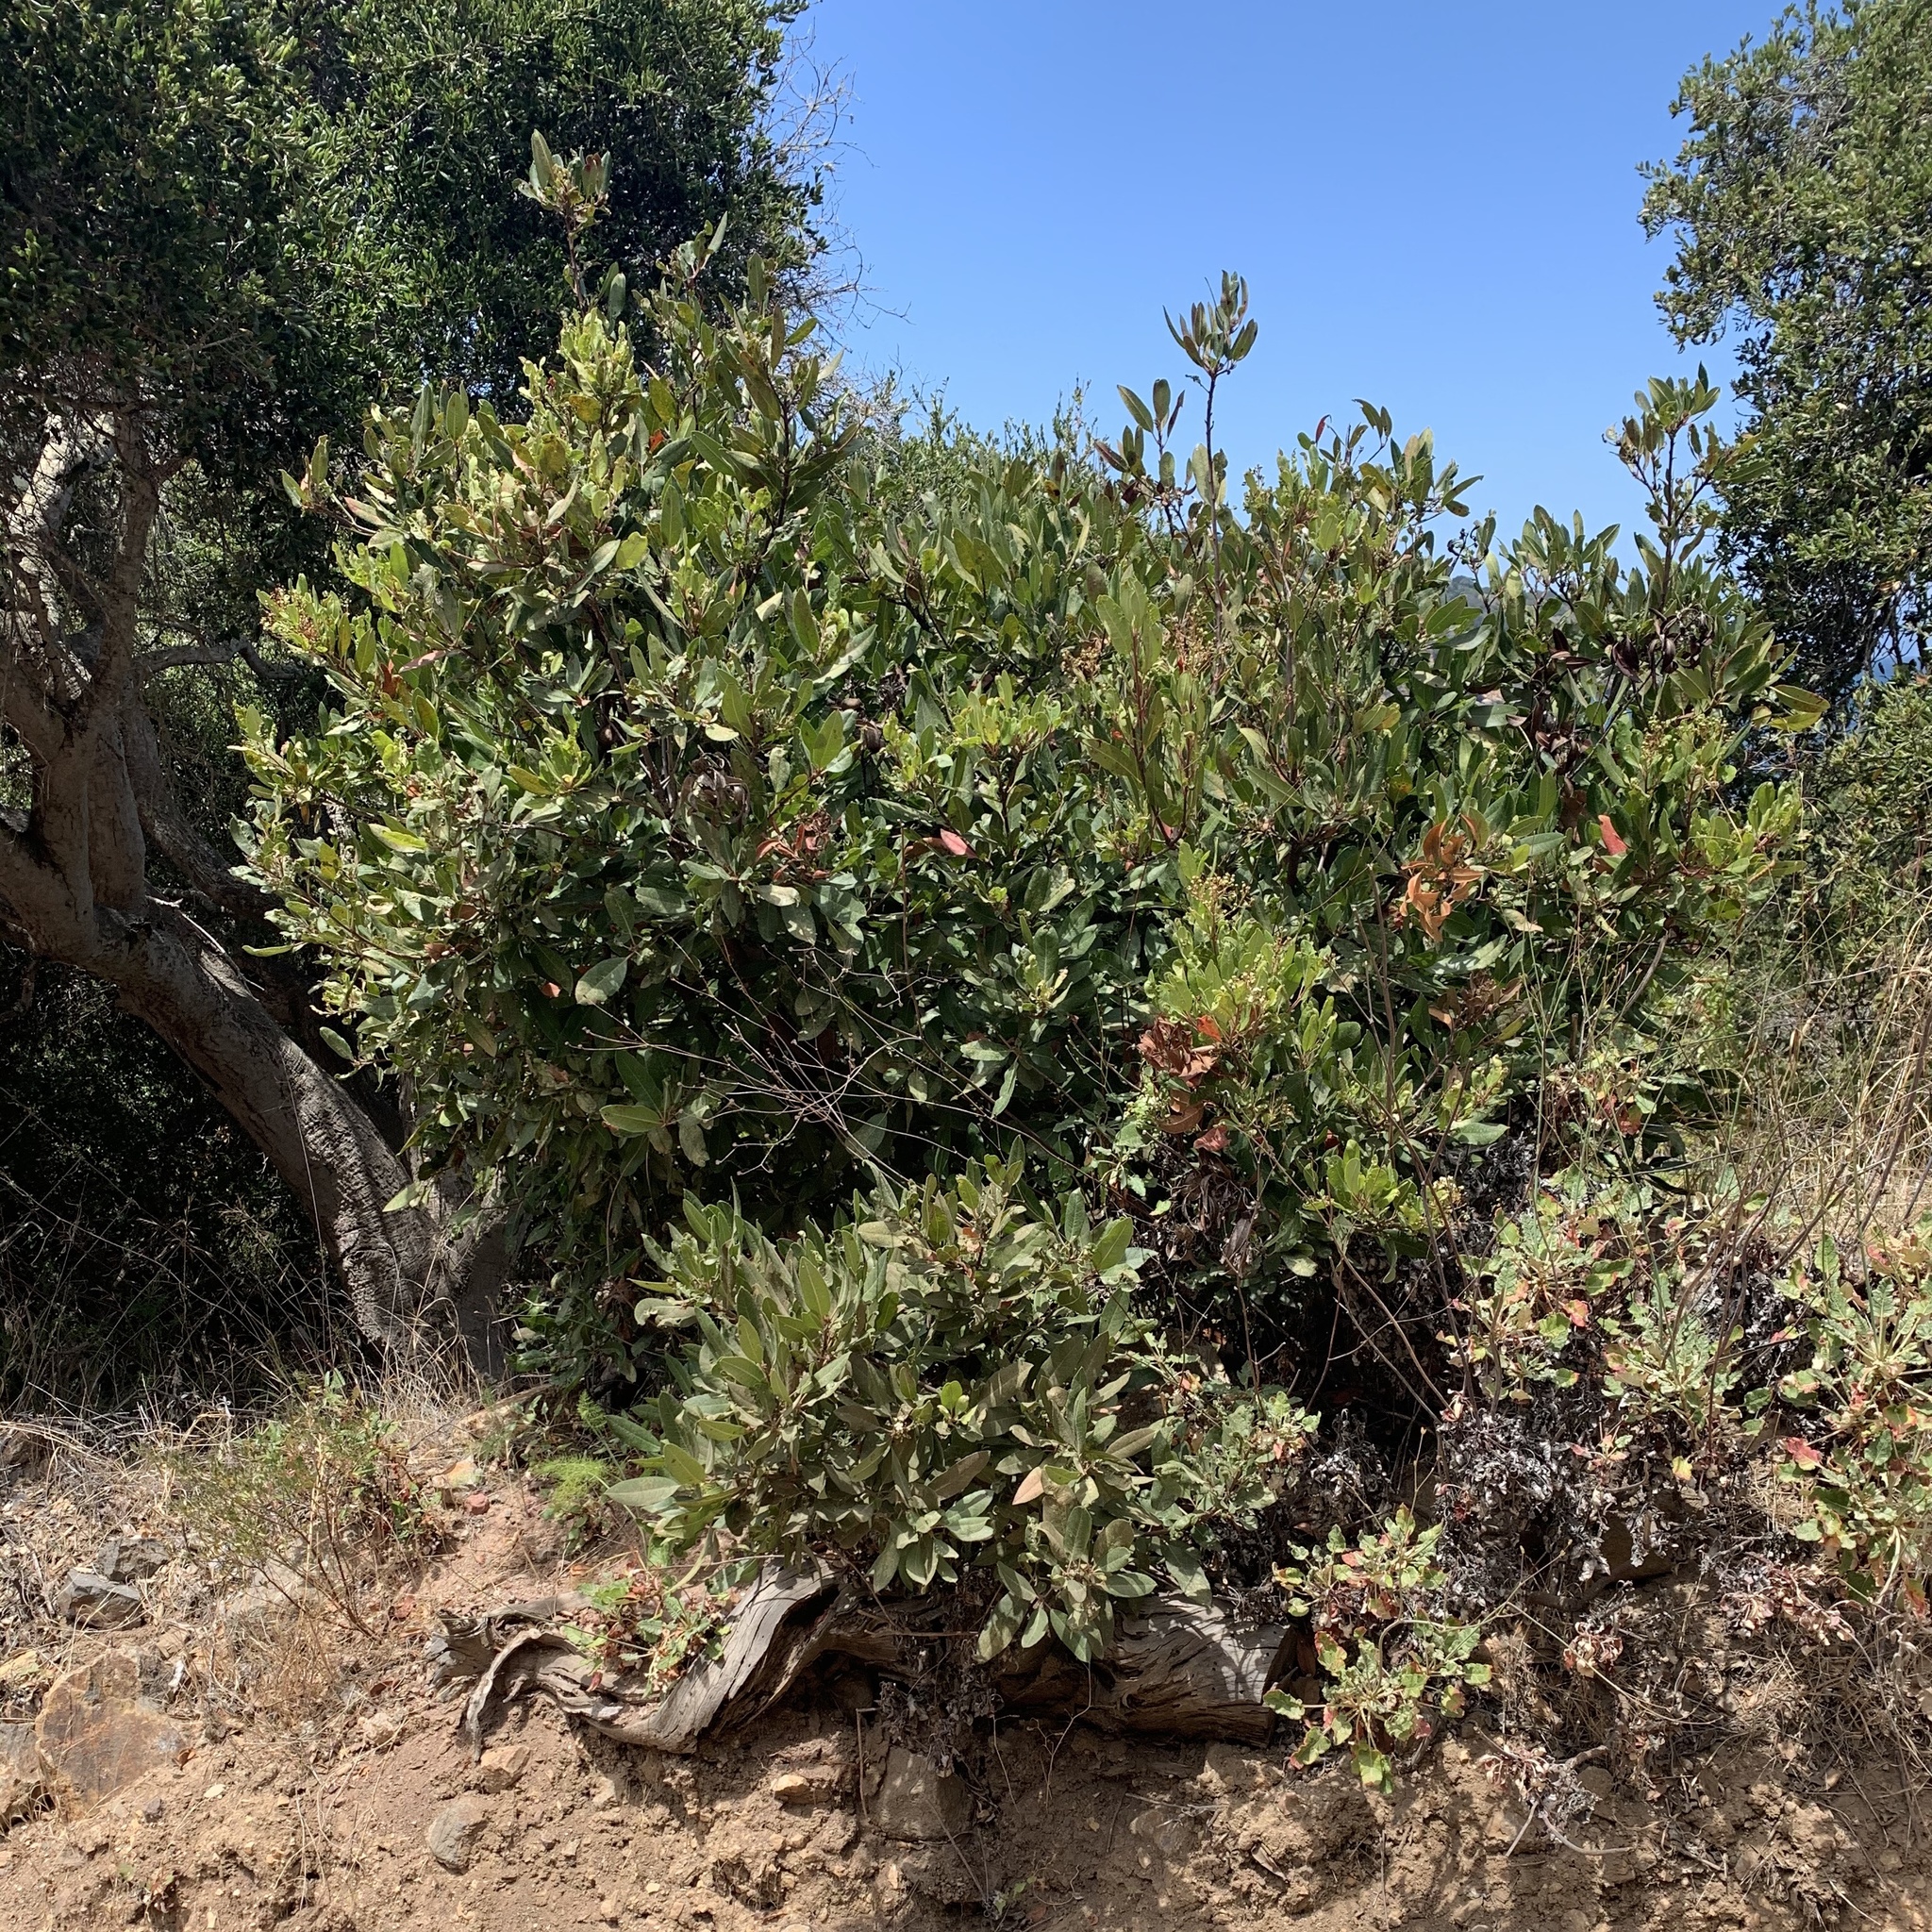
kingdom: Plantae
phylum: Tracheophyta
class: Magnoliopsida
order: Rosales
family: Rosaceae
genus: Heteromeles
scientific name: Heteromeles arbutifolia
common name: California-holly
